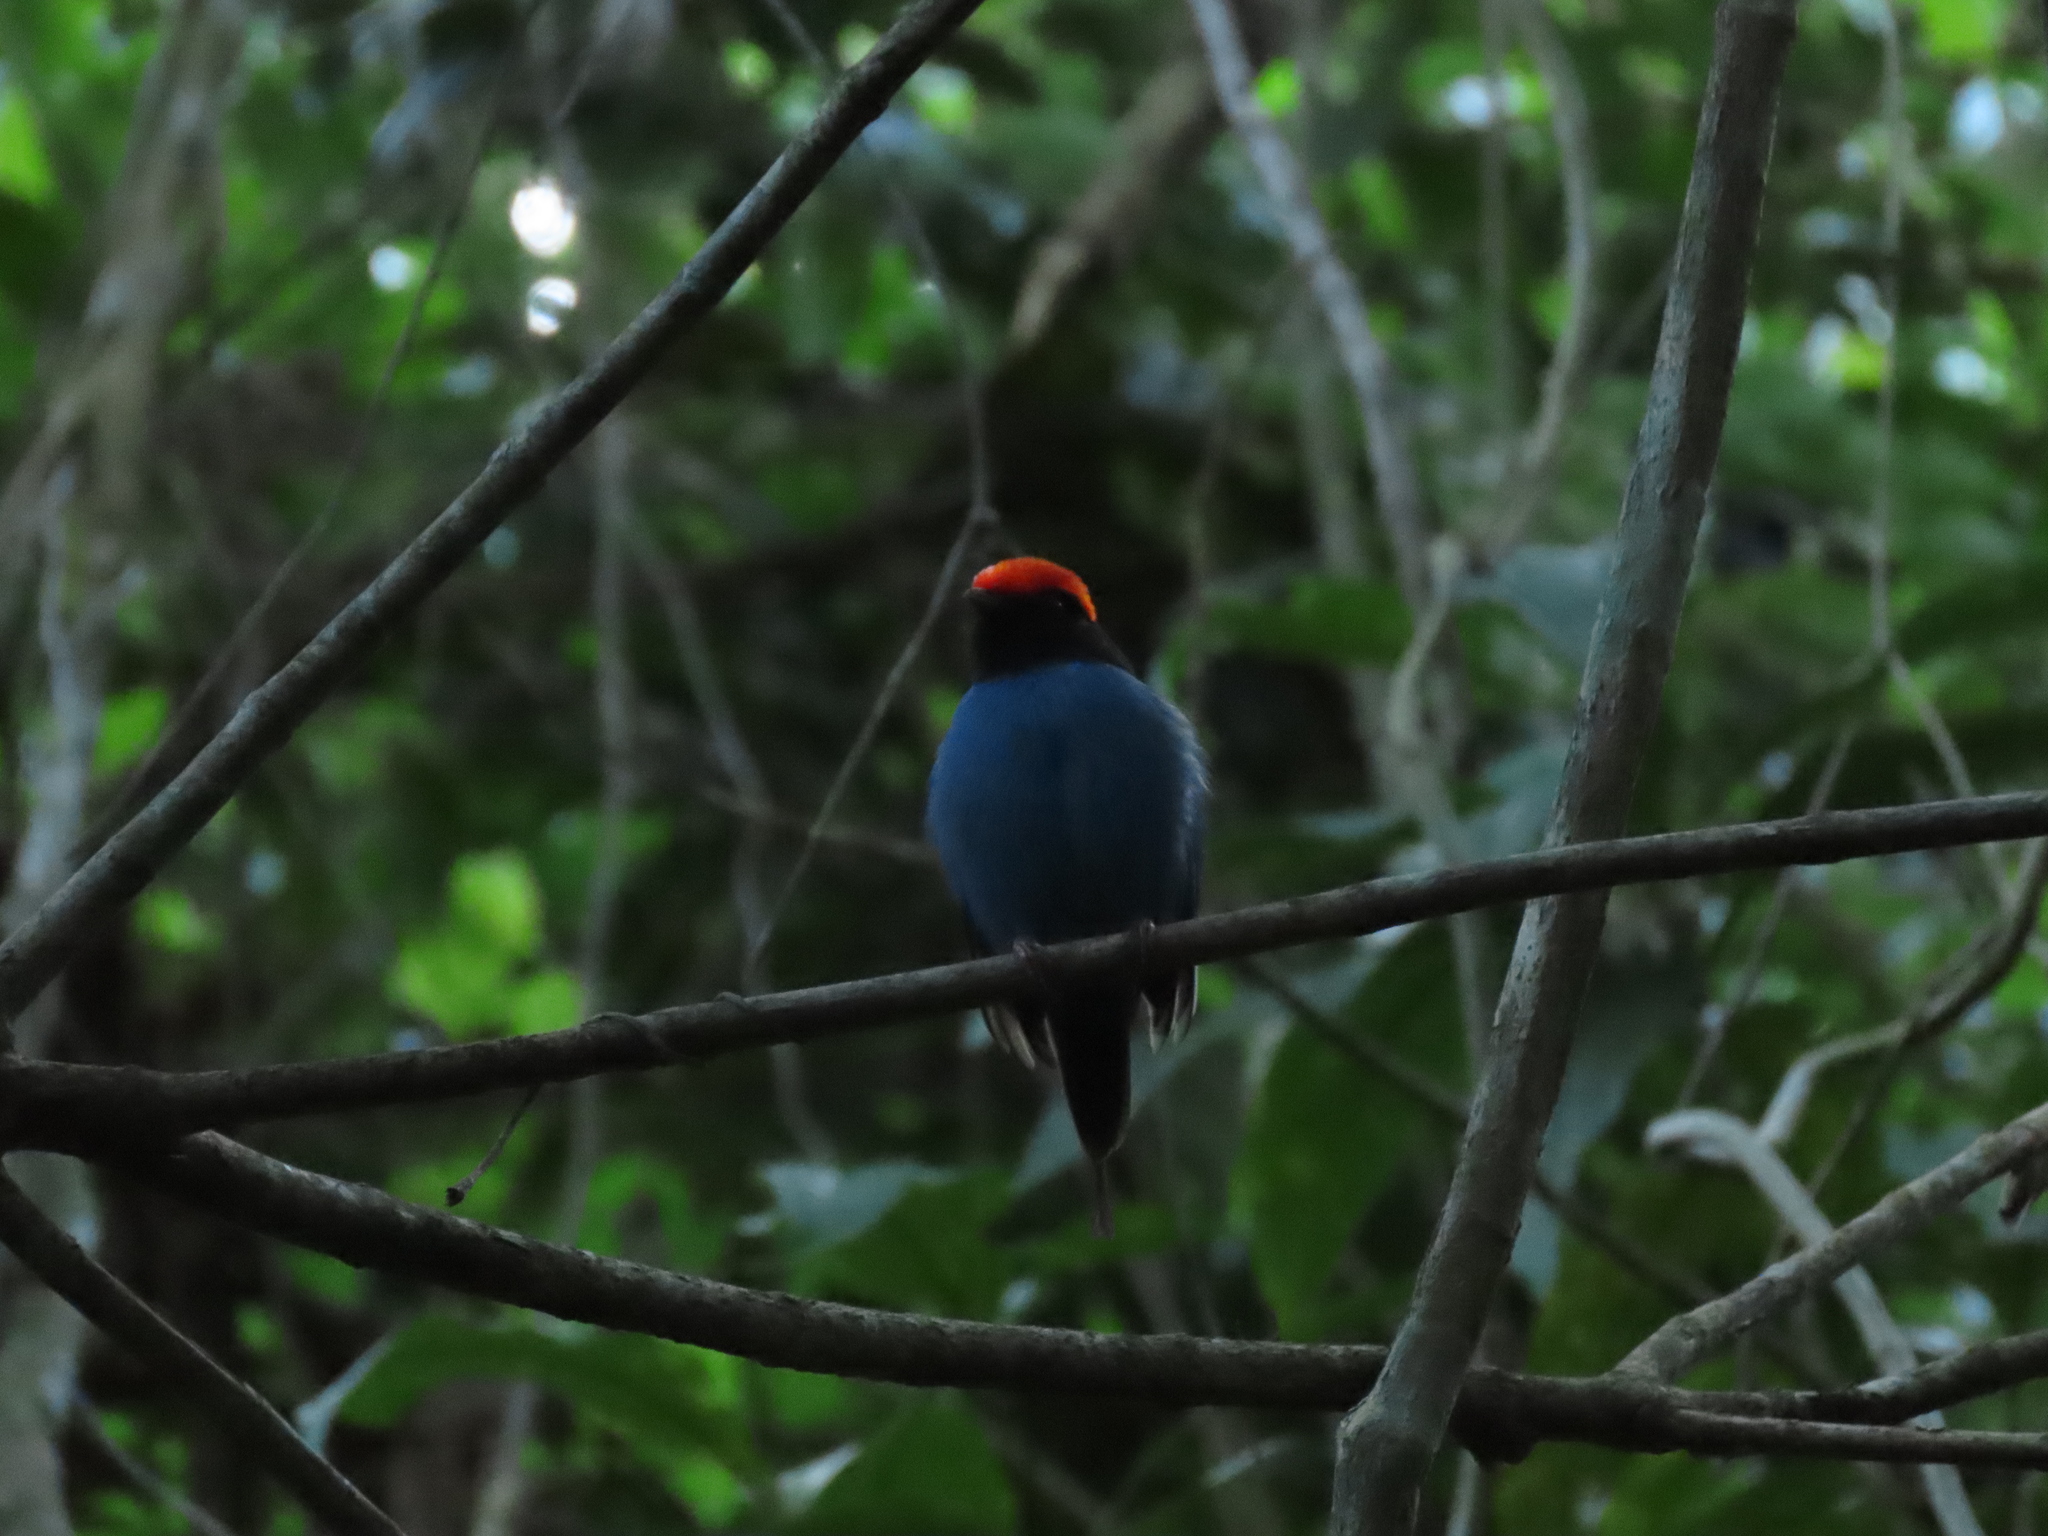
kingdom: Animalia
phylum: Chordata
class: Aves
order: Passeriformes
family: Pipridae
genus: Chiroxiphia
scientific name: Chiroxiphia caudata
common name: Blue manakin
